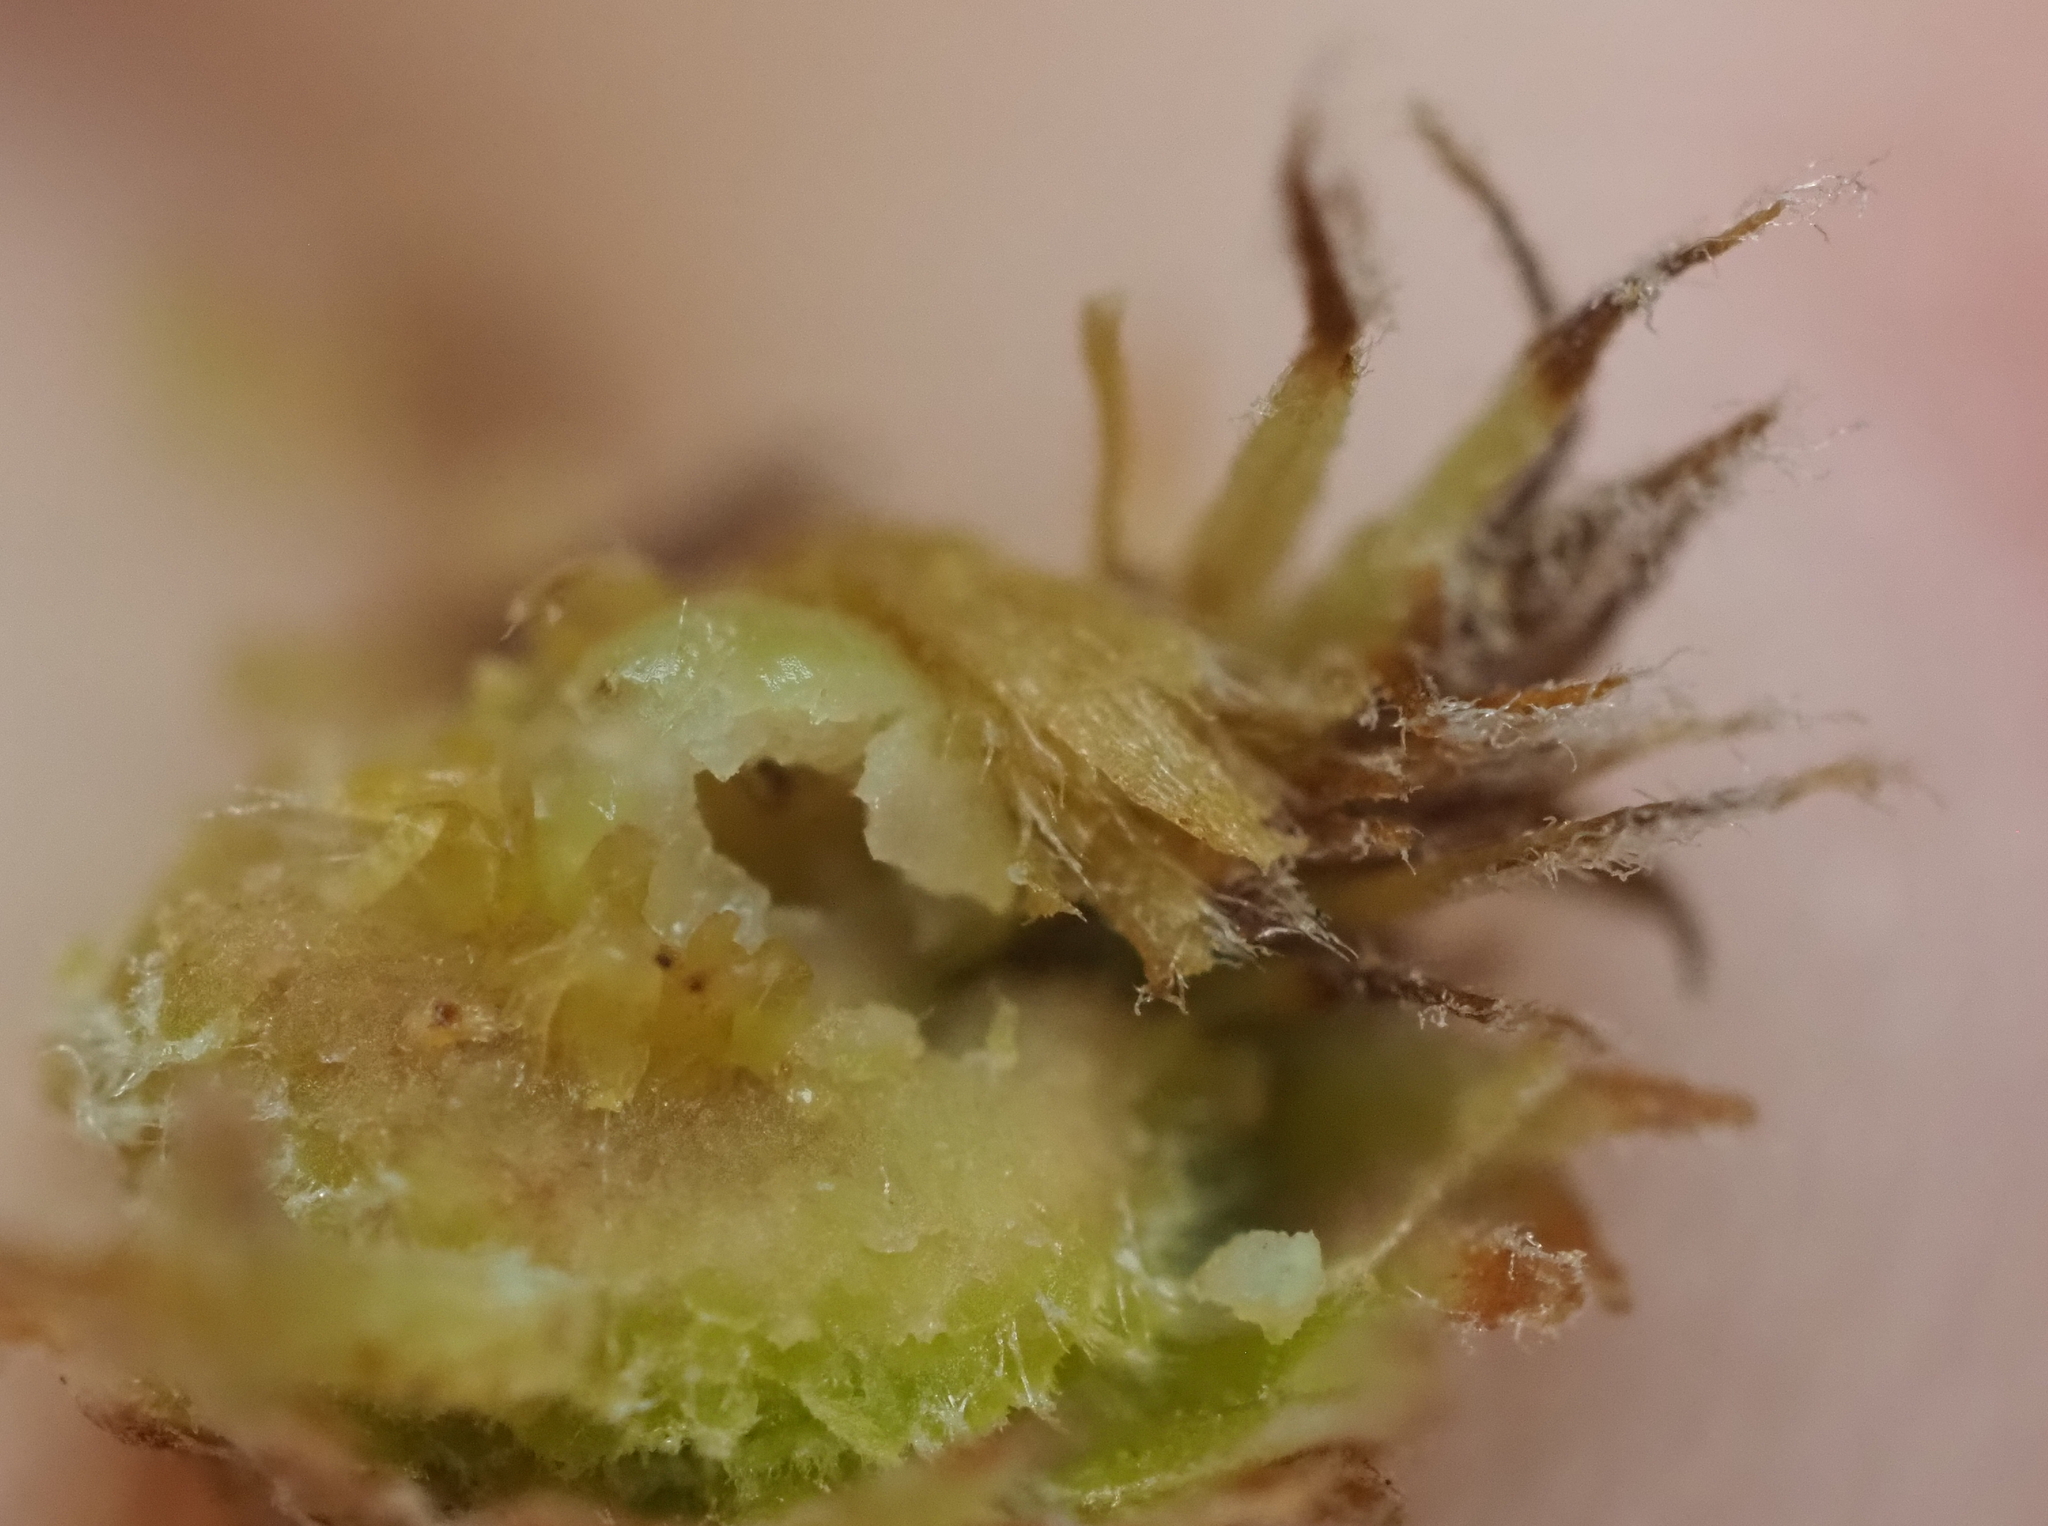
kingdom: Animalia
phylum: Arthropoda
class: Insecta
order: Hymenoptera
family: Cynipidae
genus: Andricus
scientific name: Andricus quercusfoliatus
